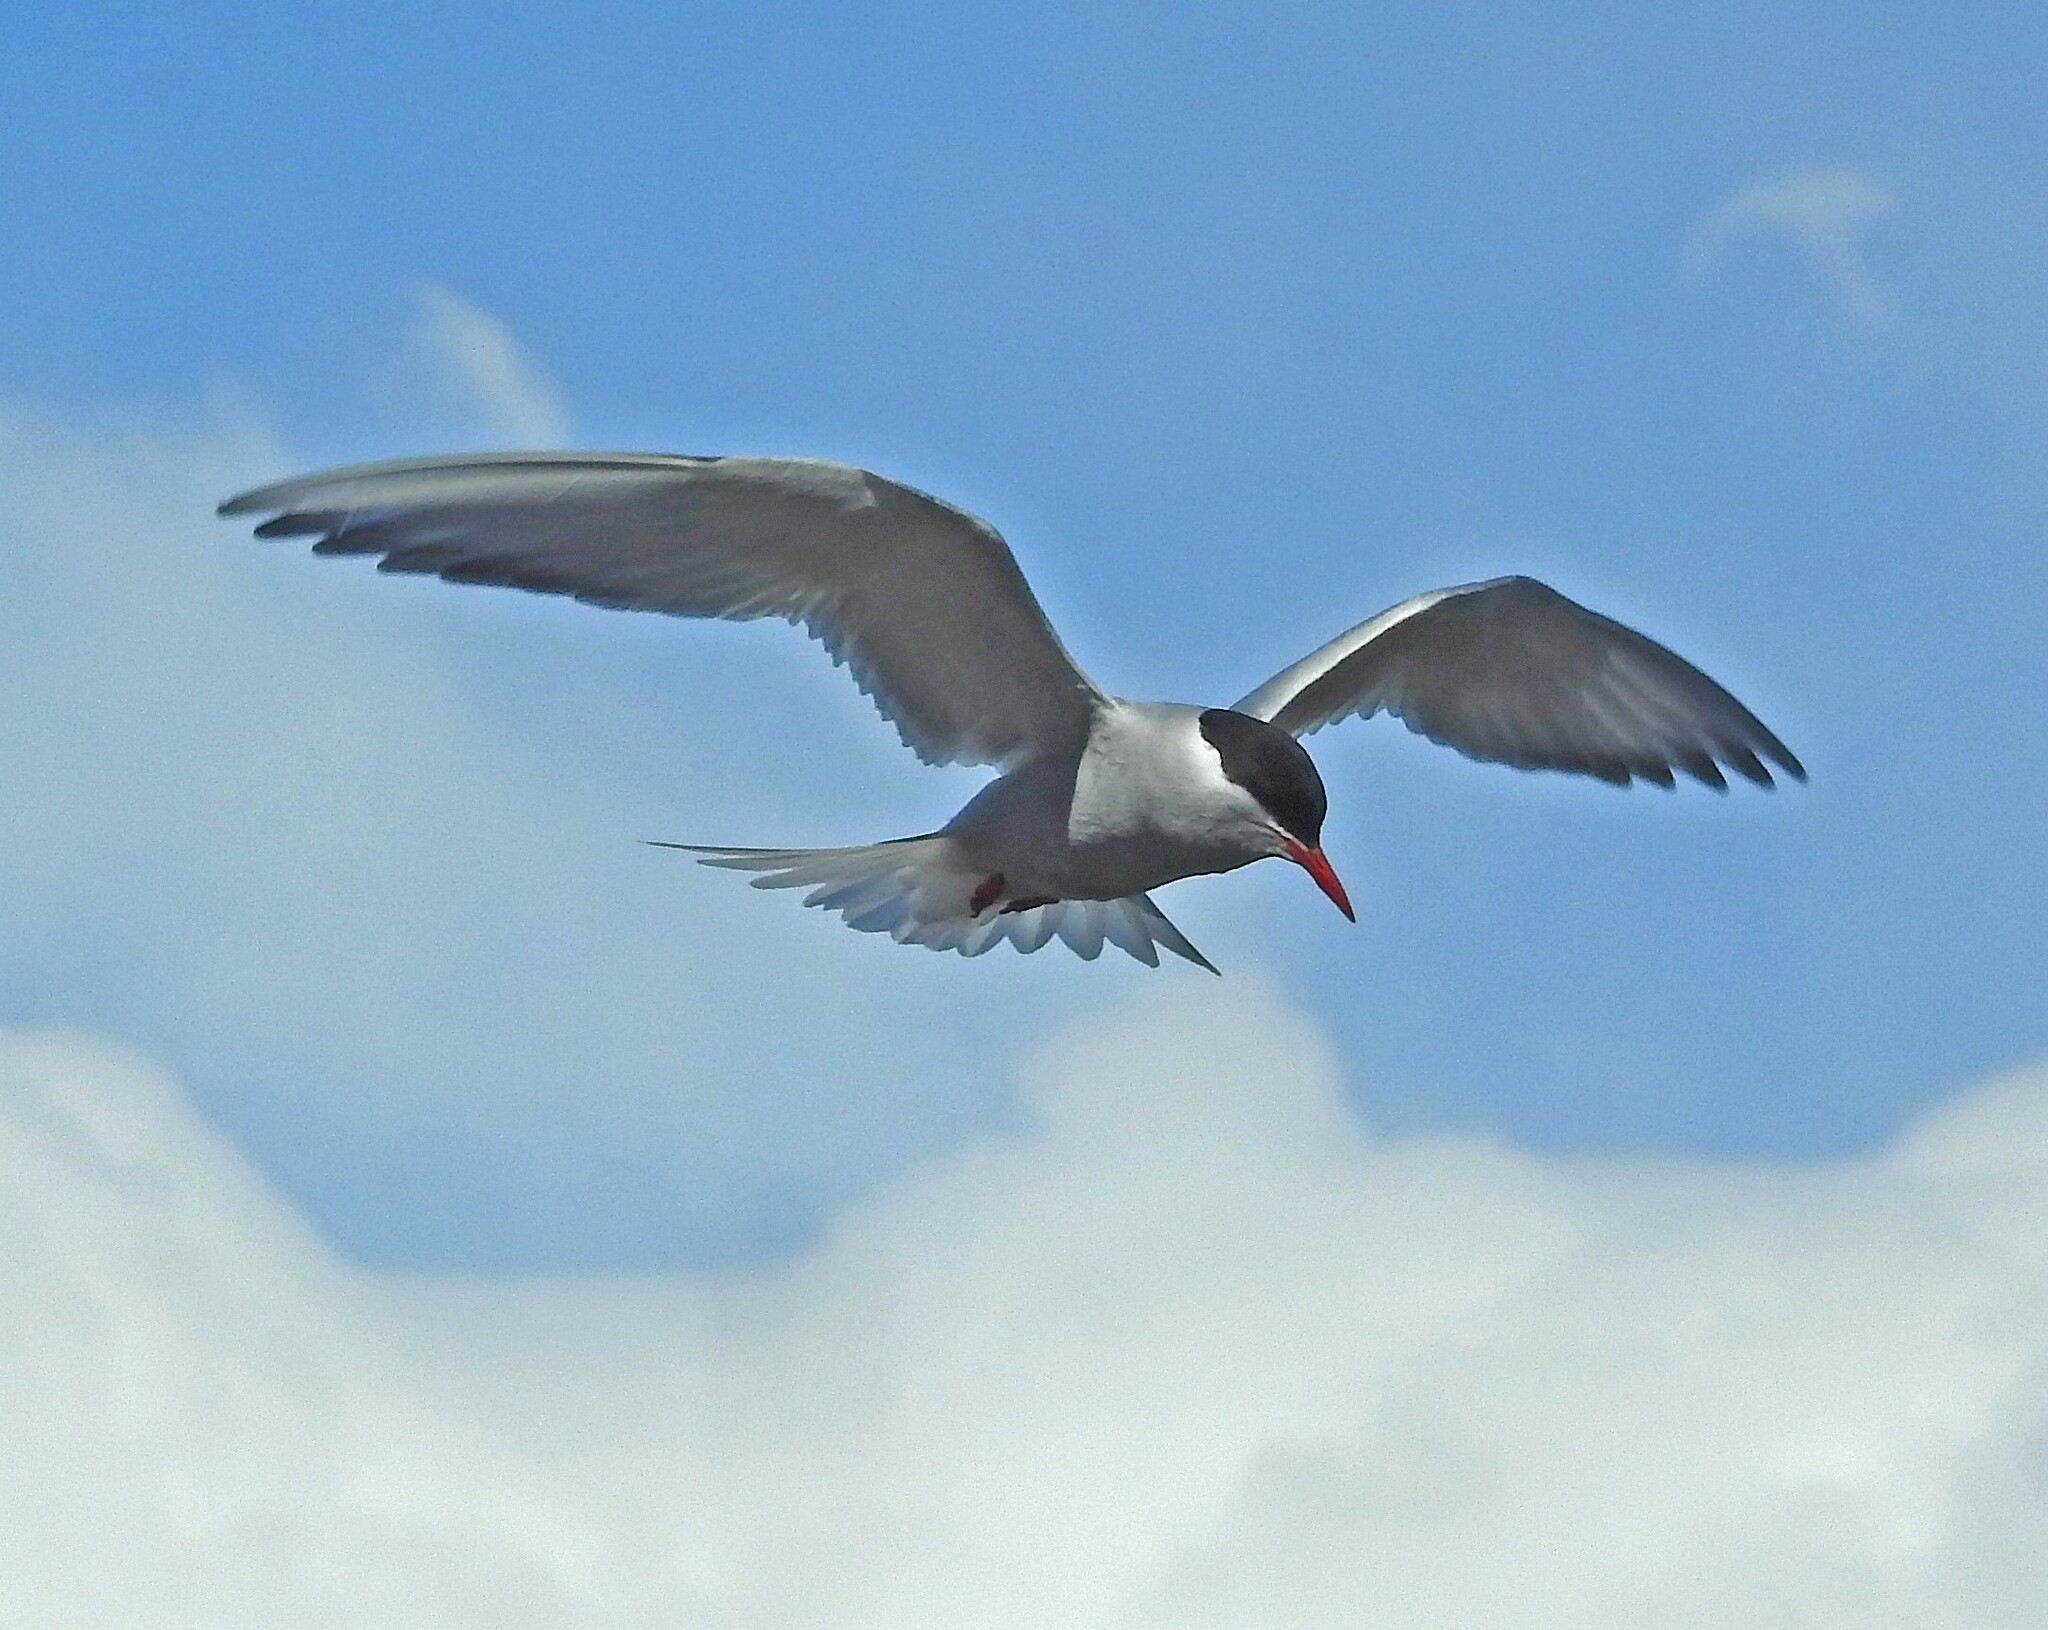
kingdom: Animalia
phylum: Chordata
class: Aves
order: Charadriiformes
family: Laridae
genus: Sterna
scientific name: Sterna vittata
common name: Antarctic tern
